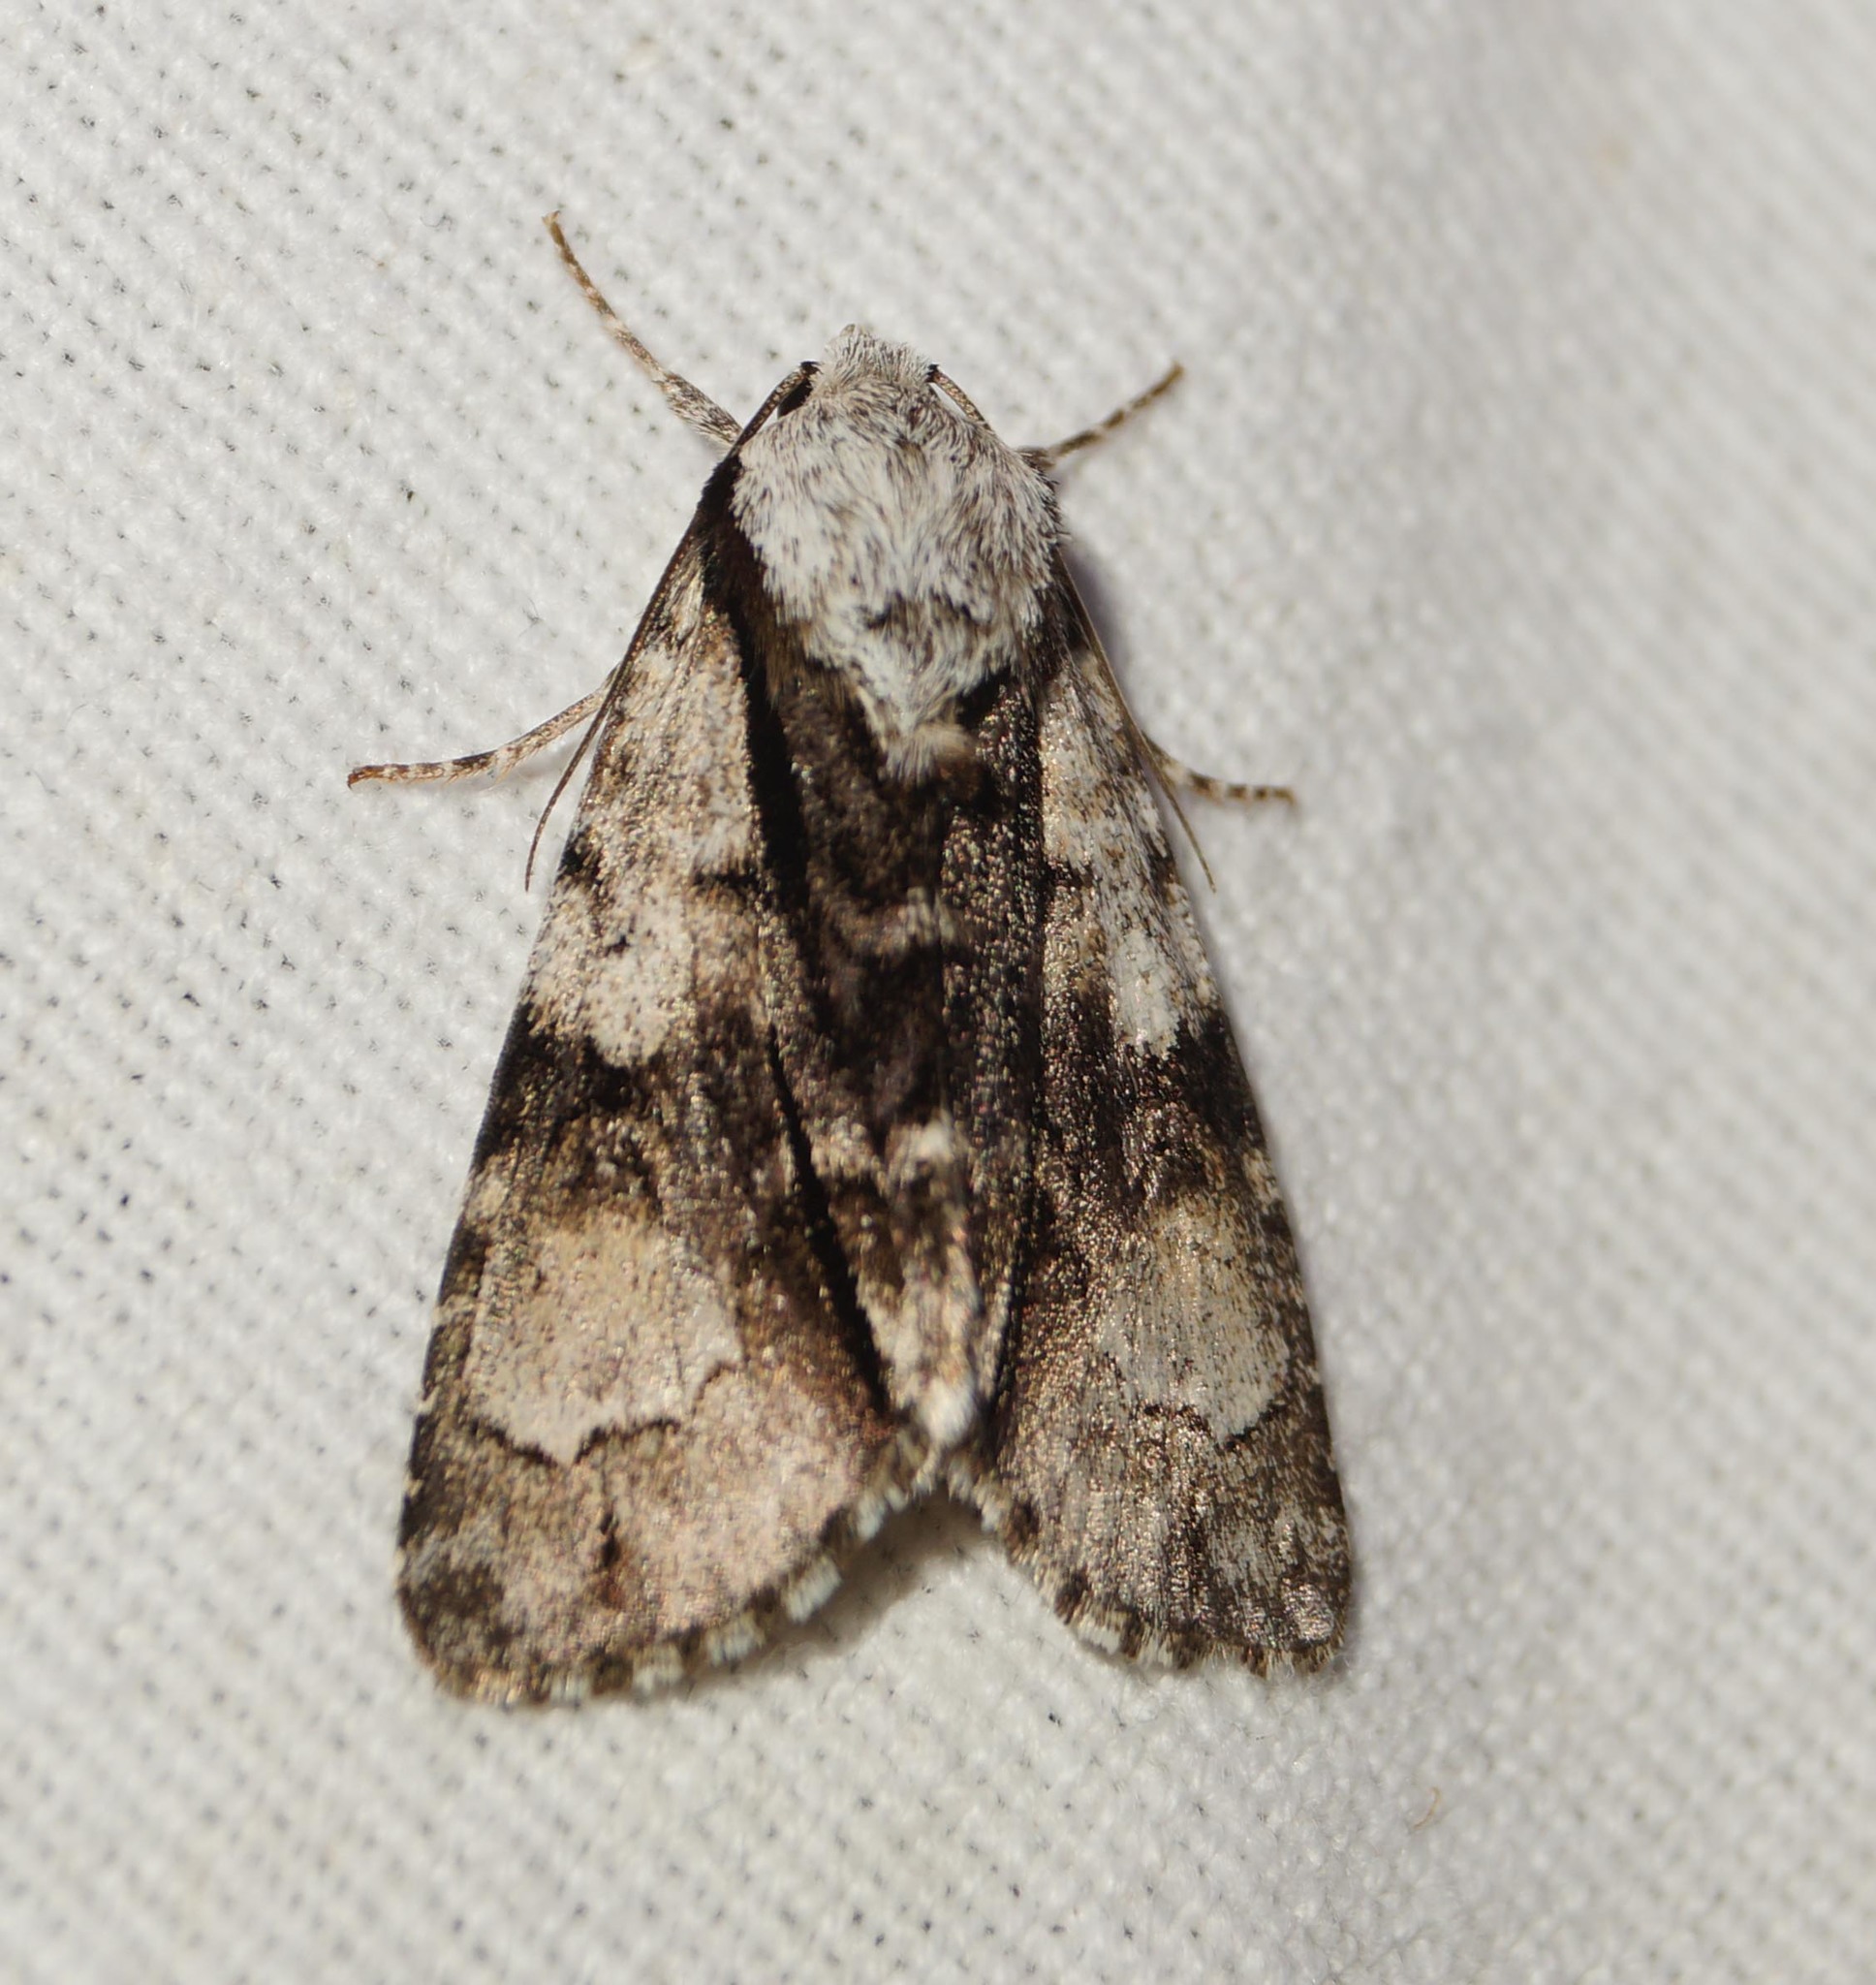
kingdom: Animalia
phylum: Arthropoda
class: Insecta
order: Lepidoptera
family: Noctuidae
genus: Acronicta
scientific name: Acronicta alni
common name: Alder moth
